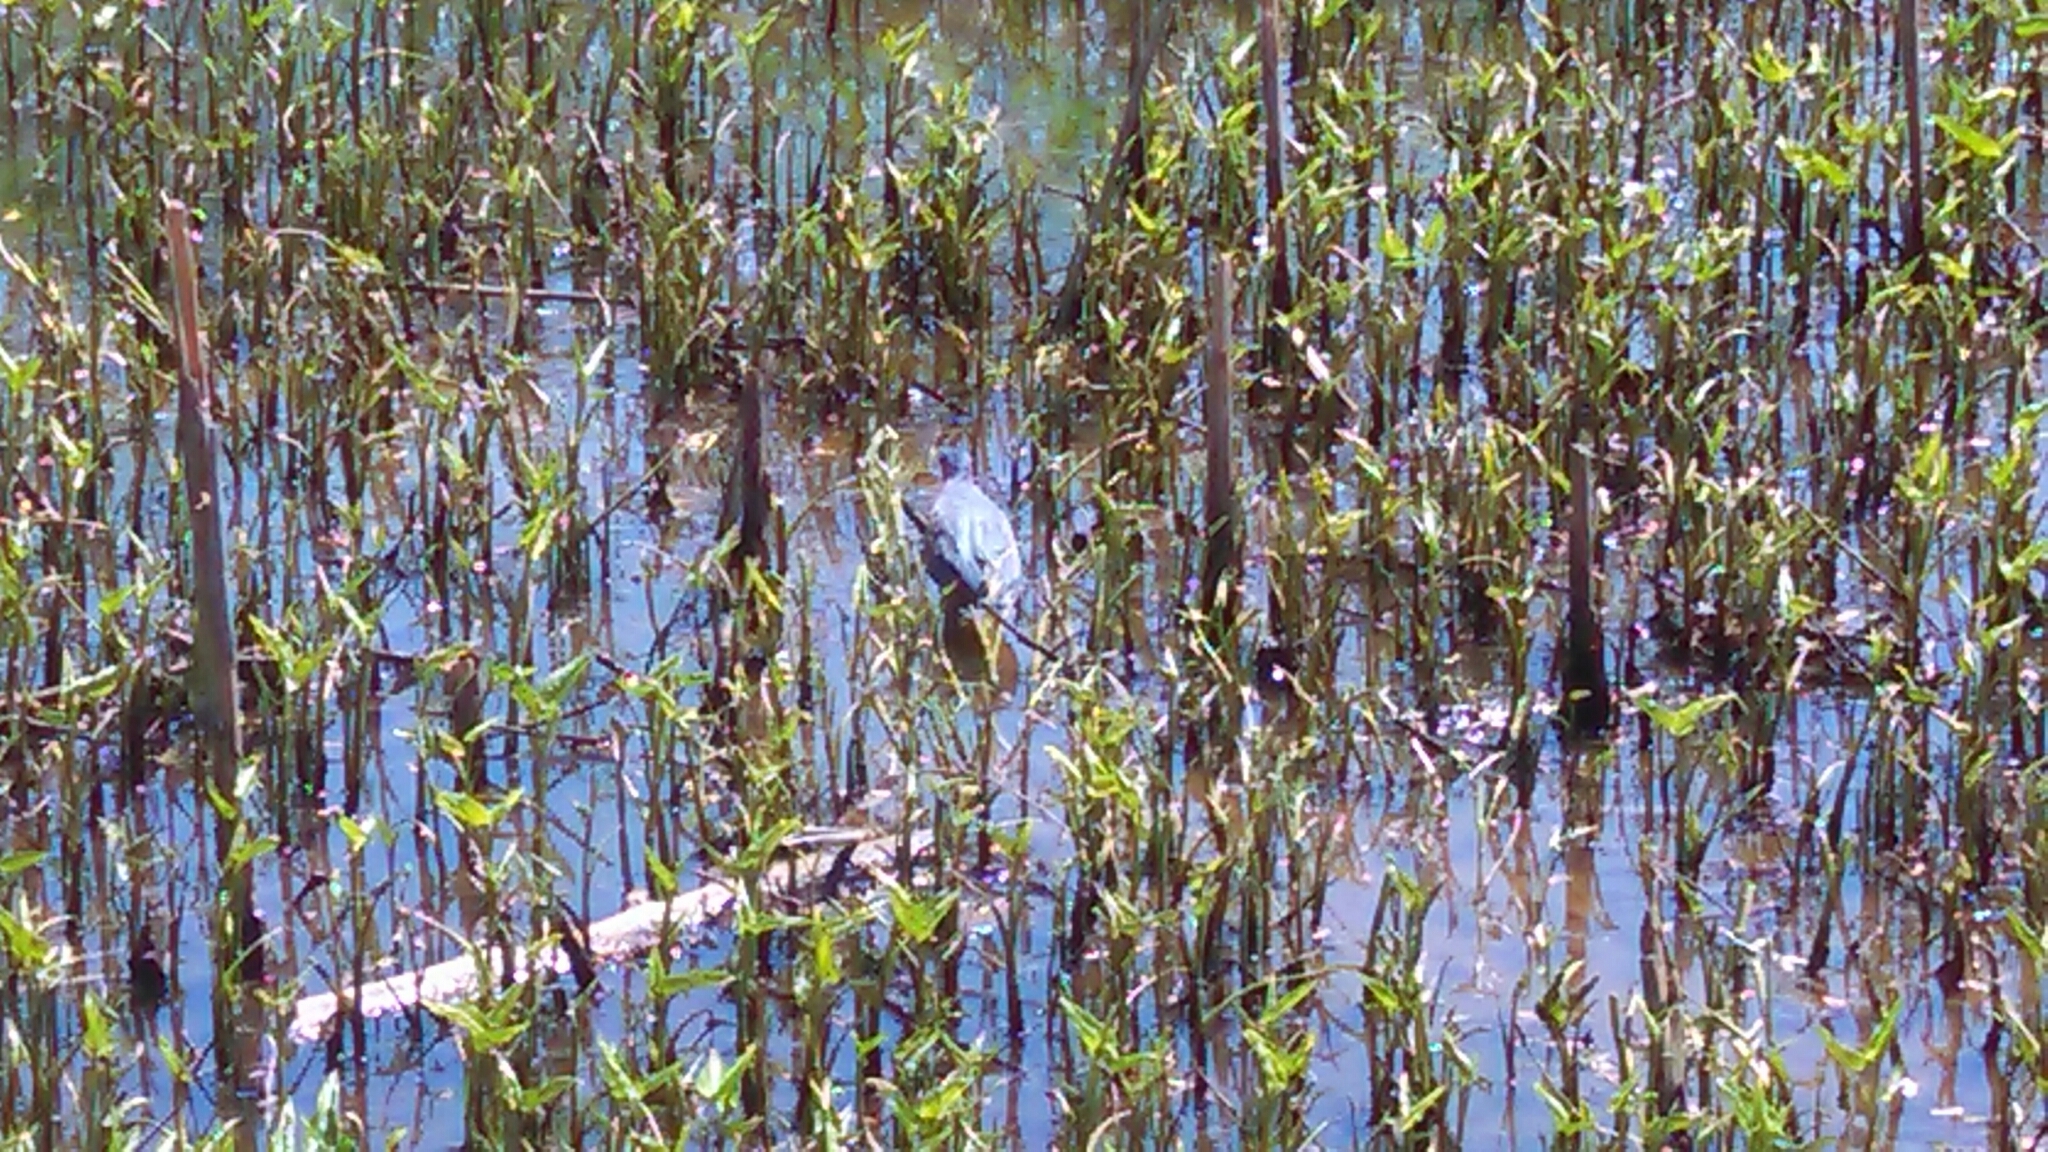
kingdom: Animalia
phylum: Chordata
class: Aves
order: Pelecaniformes
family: Ardeidae
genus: Butorides
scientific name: Butorides virescens
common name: Green heron
